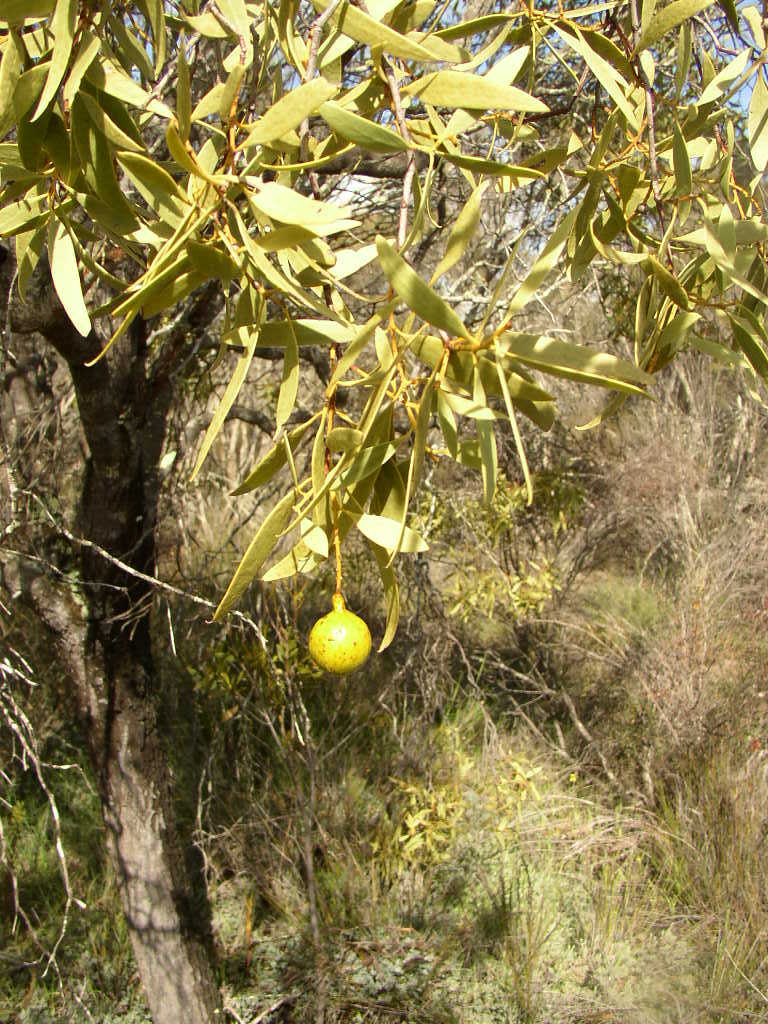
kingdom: Plantae
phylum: Tracheophyta
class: Magnoliopsida
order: Santalales
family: Santalaceae
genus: Santalum
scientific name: Santalum acuminatum
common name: Sweet quandong
